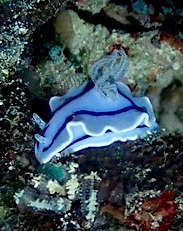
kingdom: Animalia
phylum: Mollusca
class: Gastropoda
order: Nudibranchia
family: Chromodorididae
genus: Chromodoris
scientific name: Chromodoris willani
